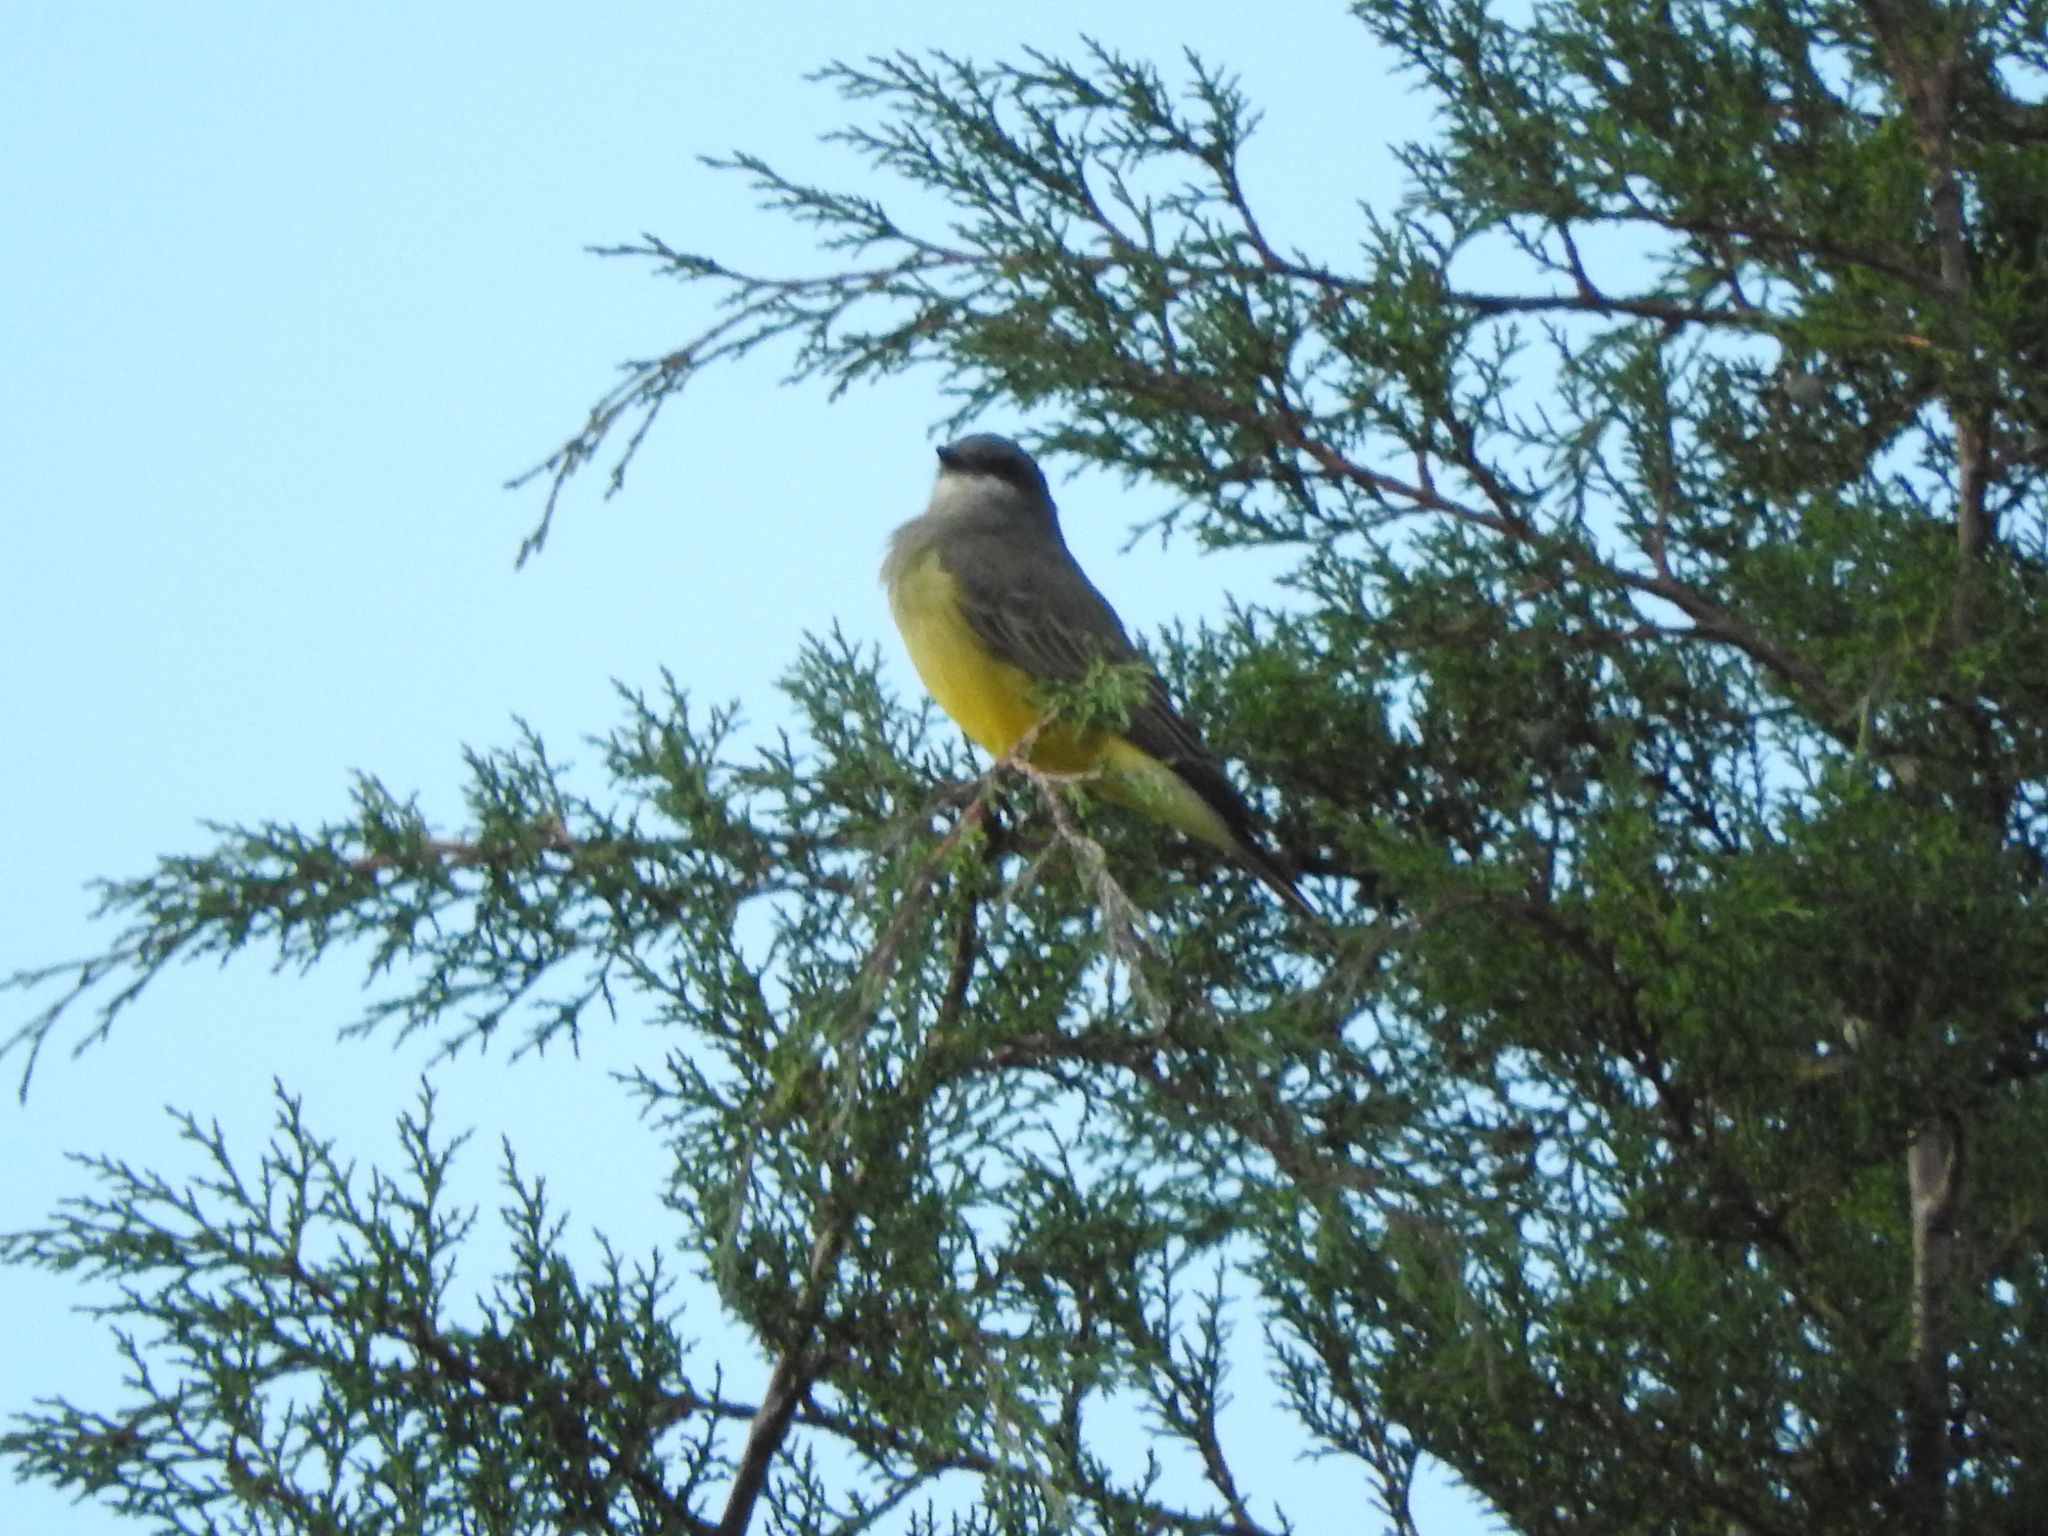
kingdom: Animalia
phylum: Chordata
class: Aves
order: Passeriformes
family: Tyrannidae
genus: Tyrannus
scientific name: Tyrannus vociferans
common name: Cassin's kingbird
